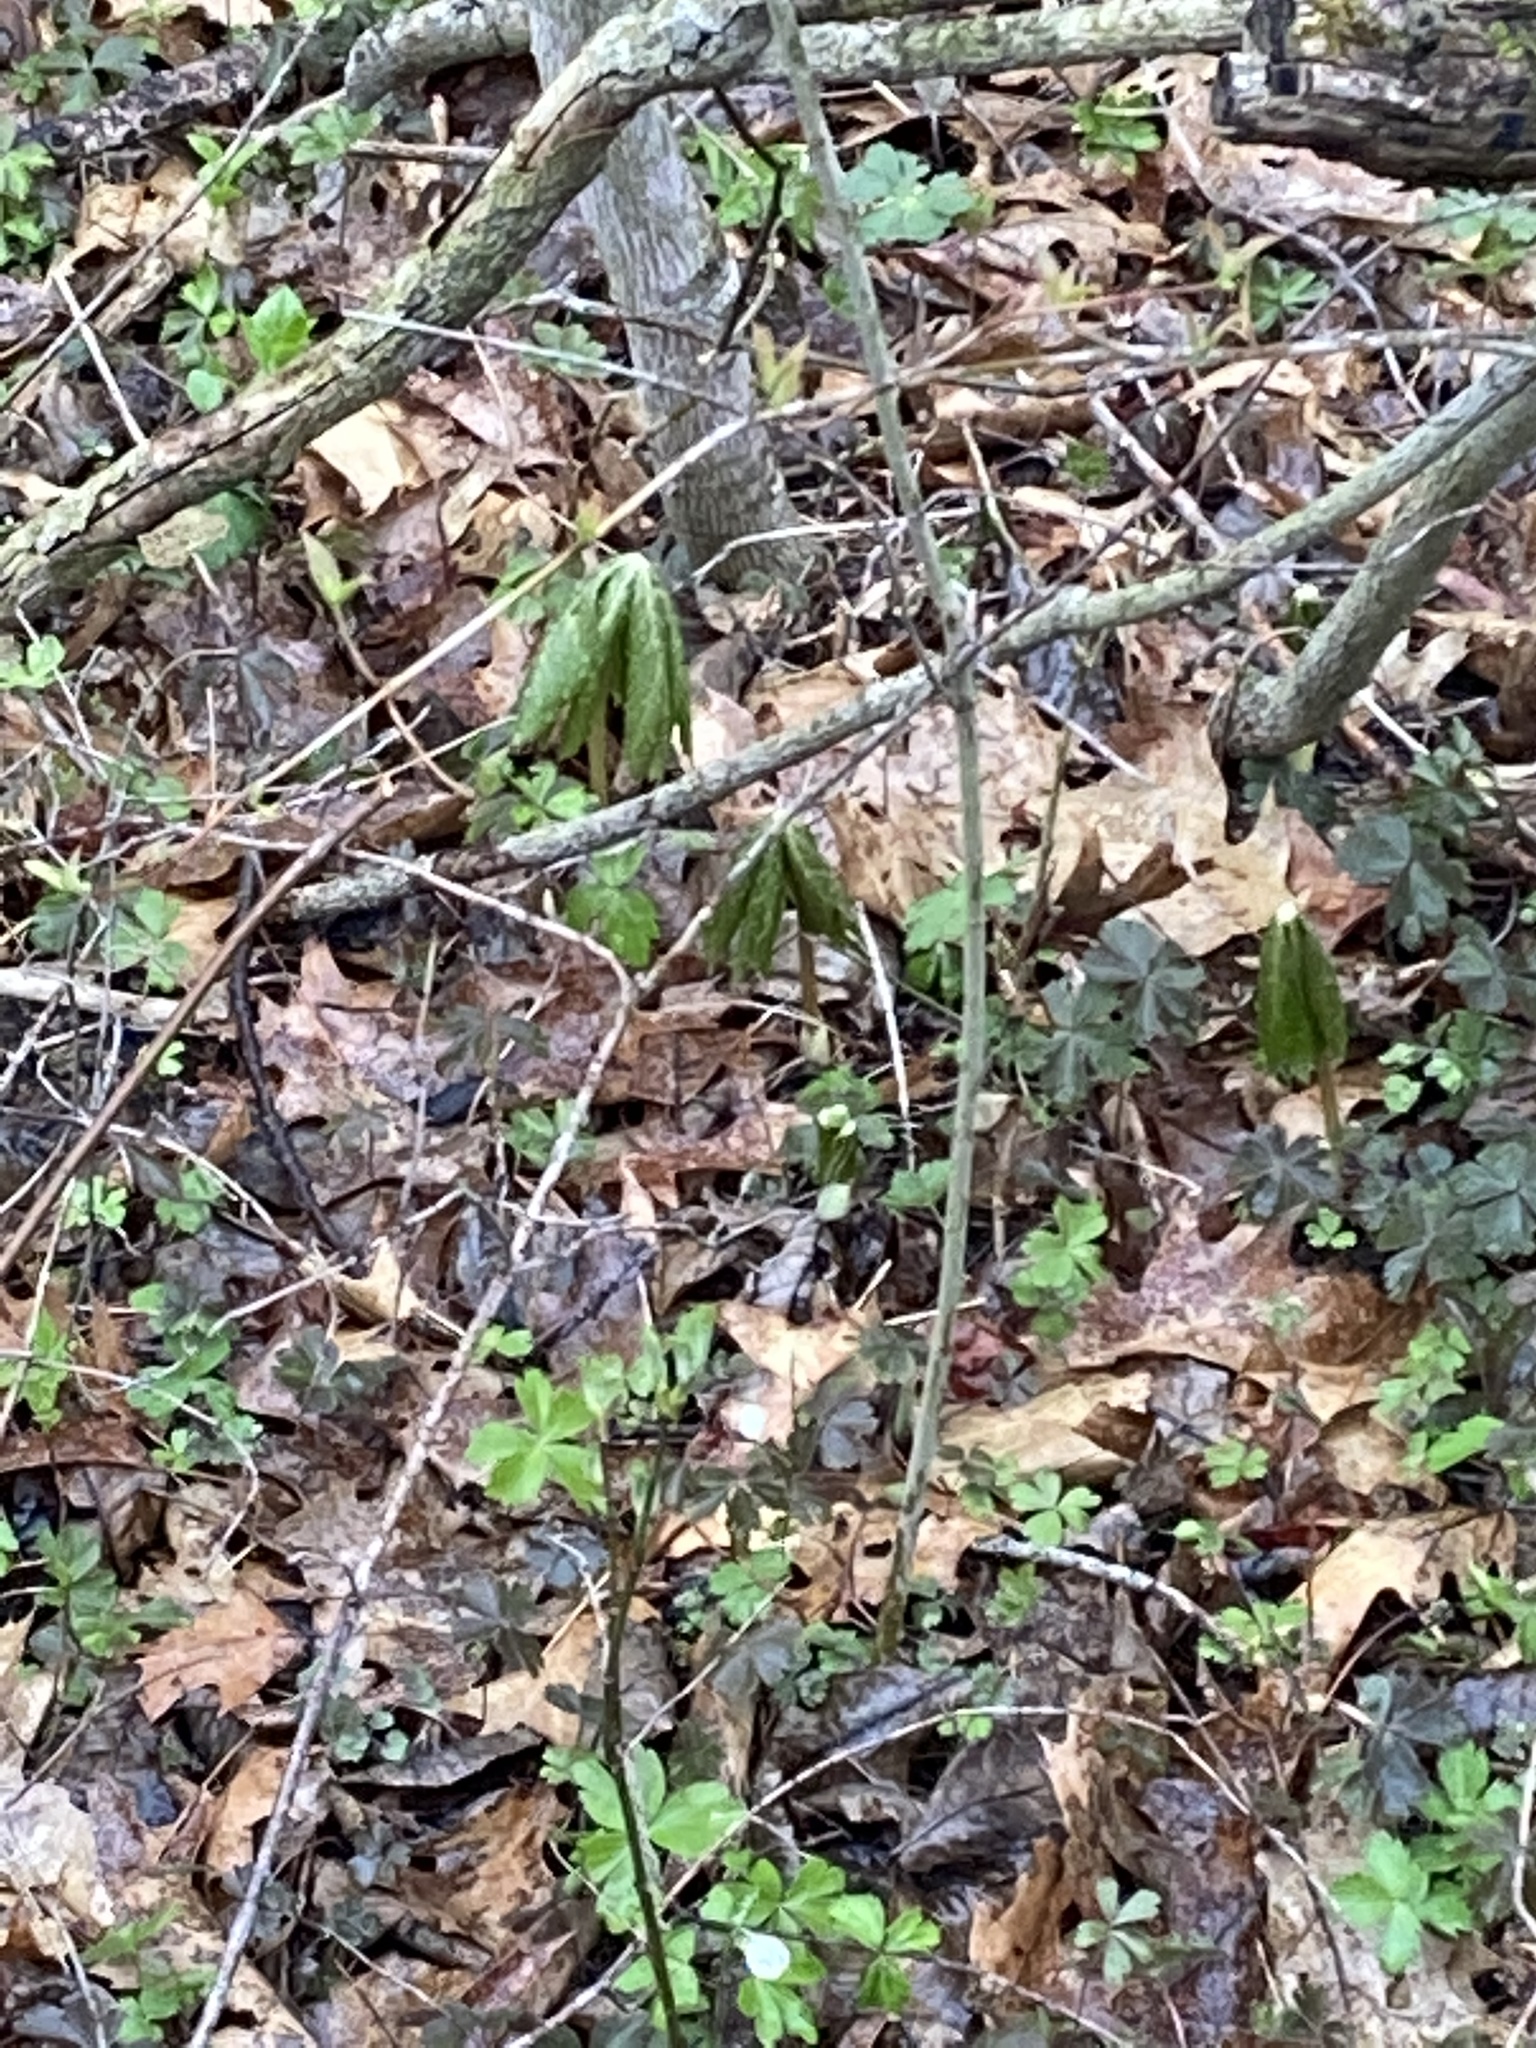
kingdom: Plantae
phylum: Tracheophyta
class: Magnoliopsida
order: Ranunculales
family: Berberidaceae
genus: Podophyllum
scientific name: Podophyllum peltatum
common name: Wild mandrake
